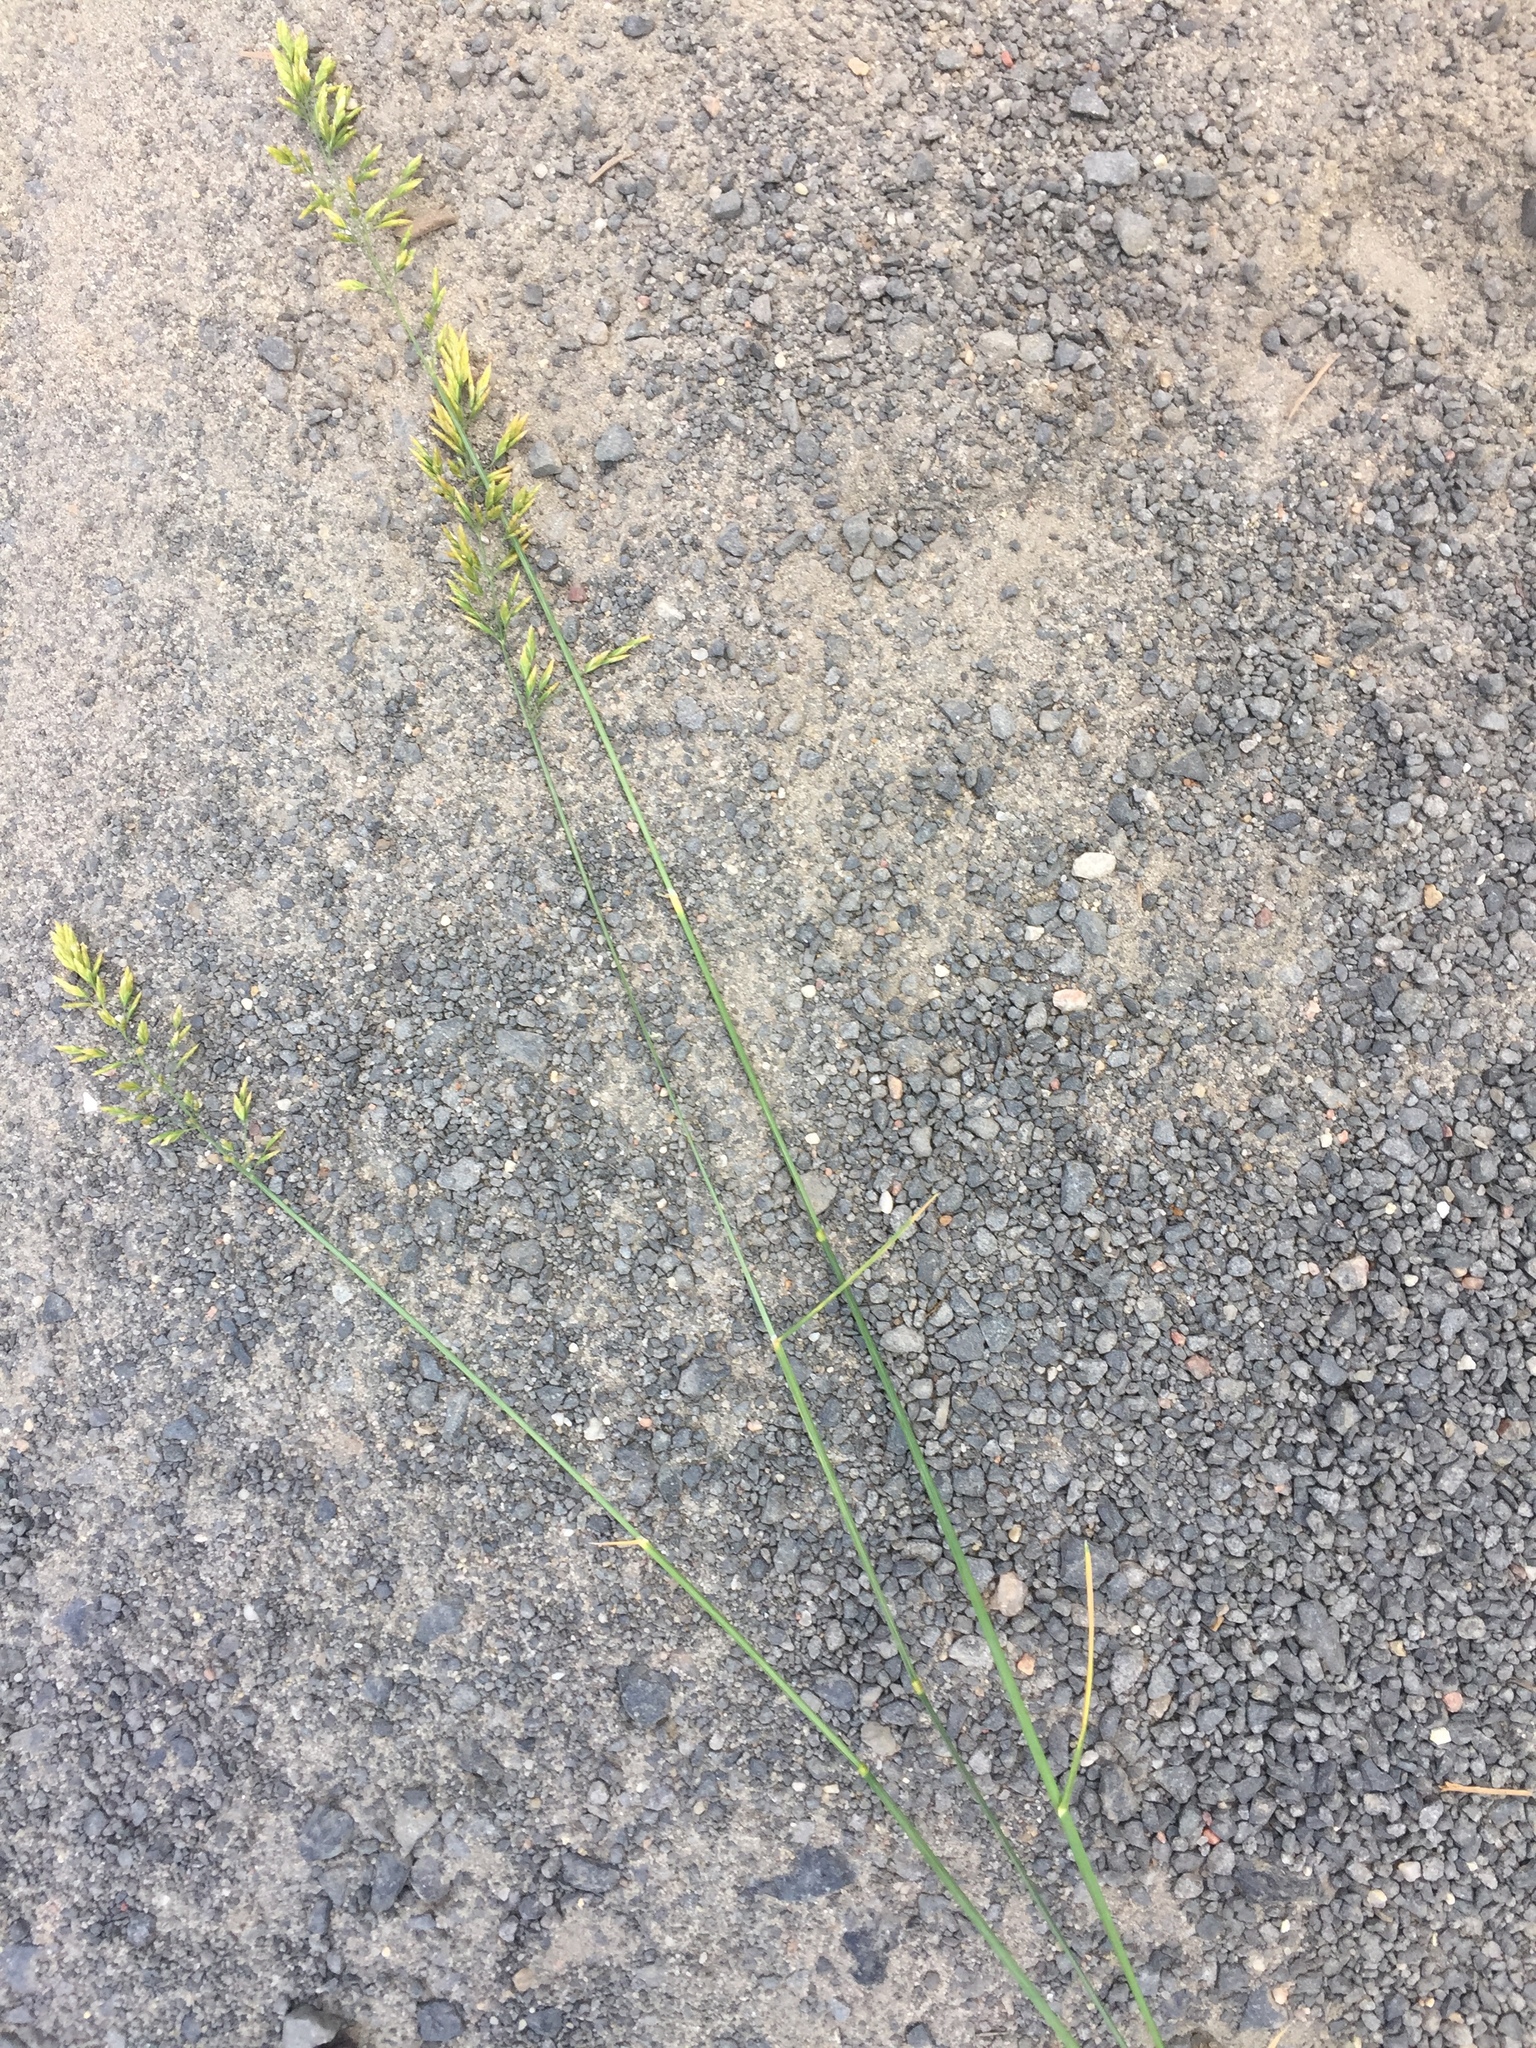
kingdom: Plantae
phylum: Tracheophyta
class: Liliopsida
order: Poales
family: Poaceae
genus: Poa
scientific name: Poa compressa
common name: Canada bluegrass
